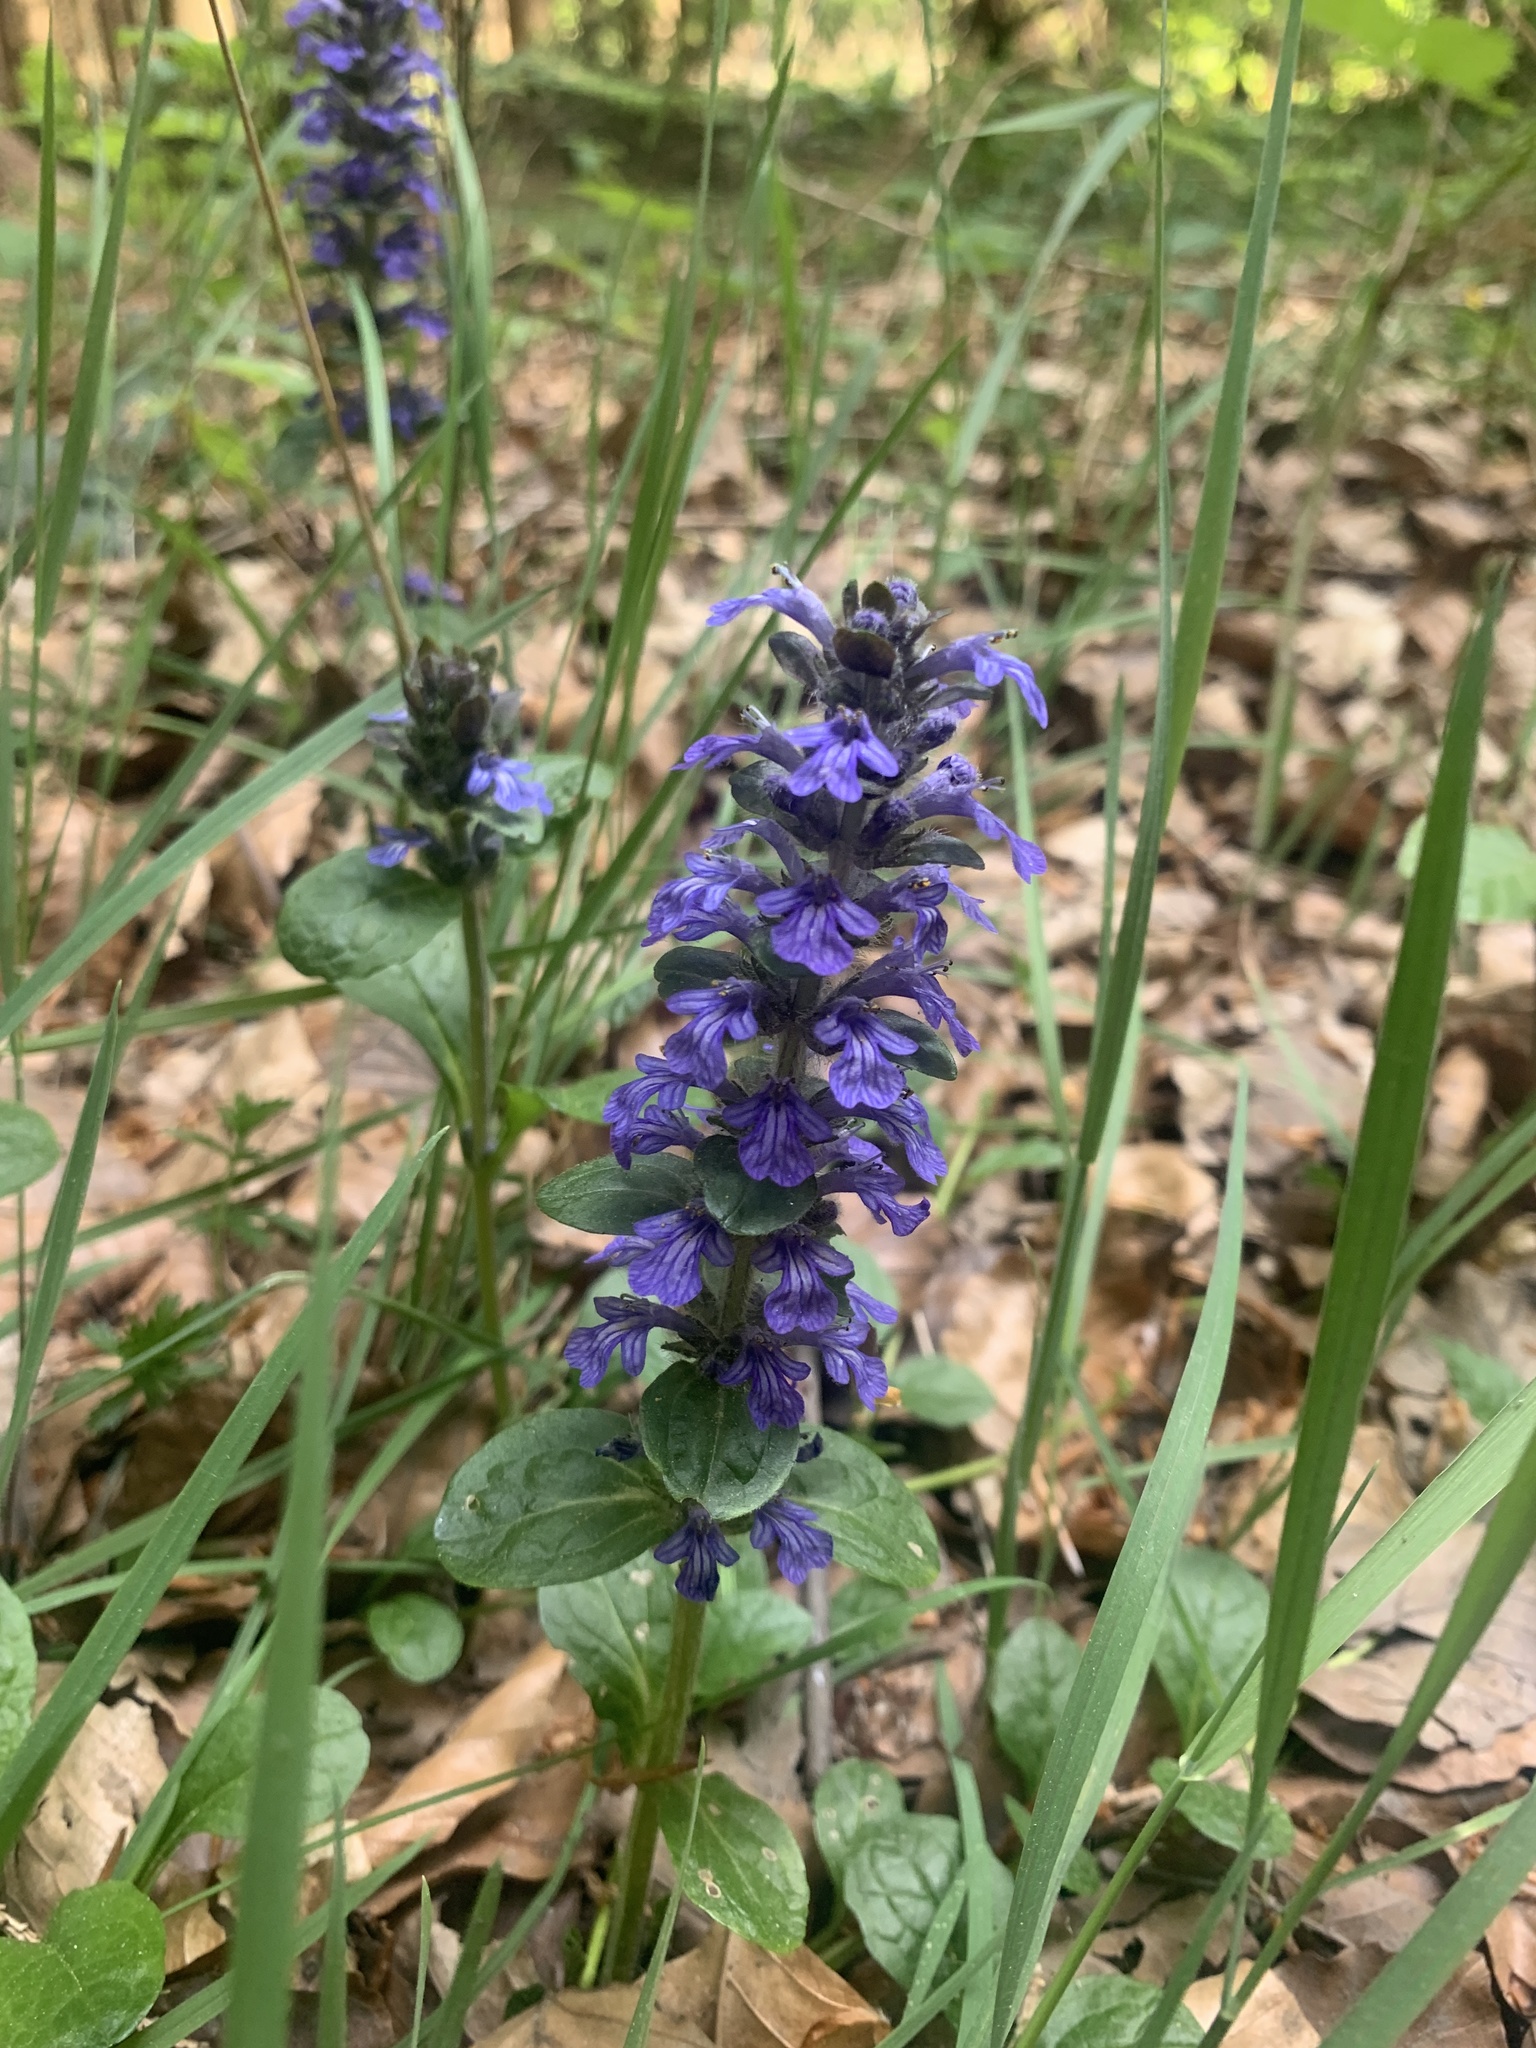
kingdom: Plantae
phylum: Tracheophyta
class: Magnoliopsida
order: Lamiales
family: Lamiaceae
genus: Ajuga
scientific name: Ajuga reptans
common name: Bugle
